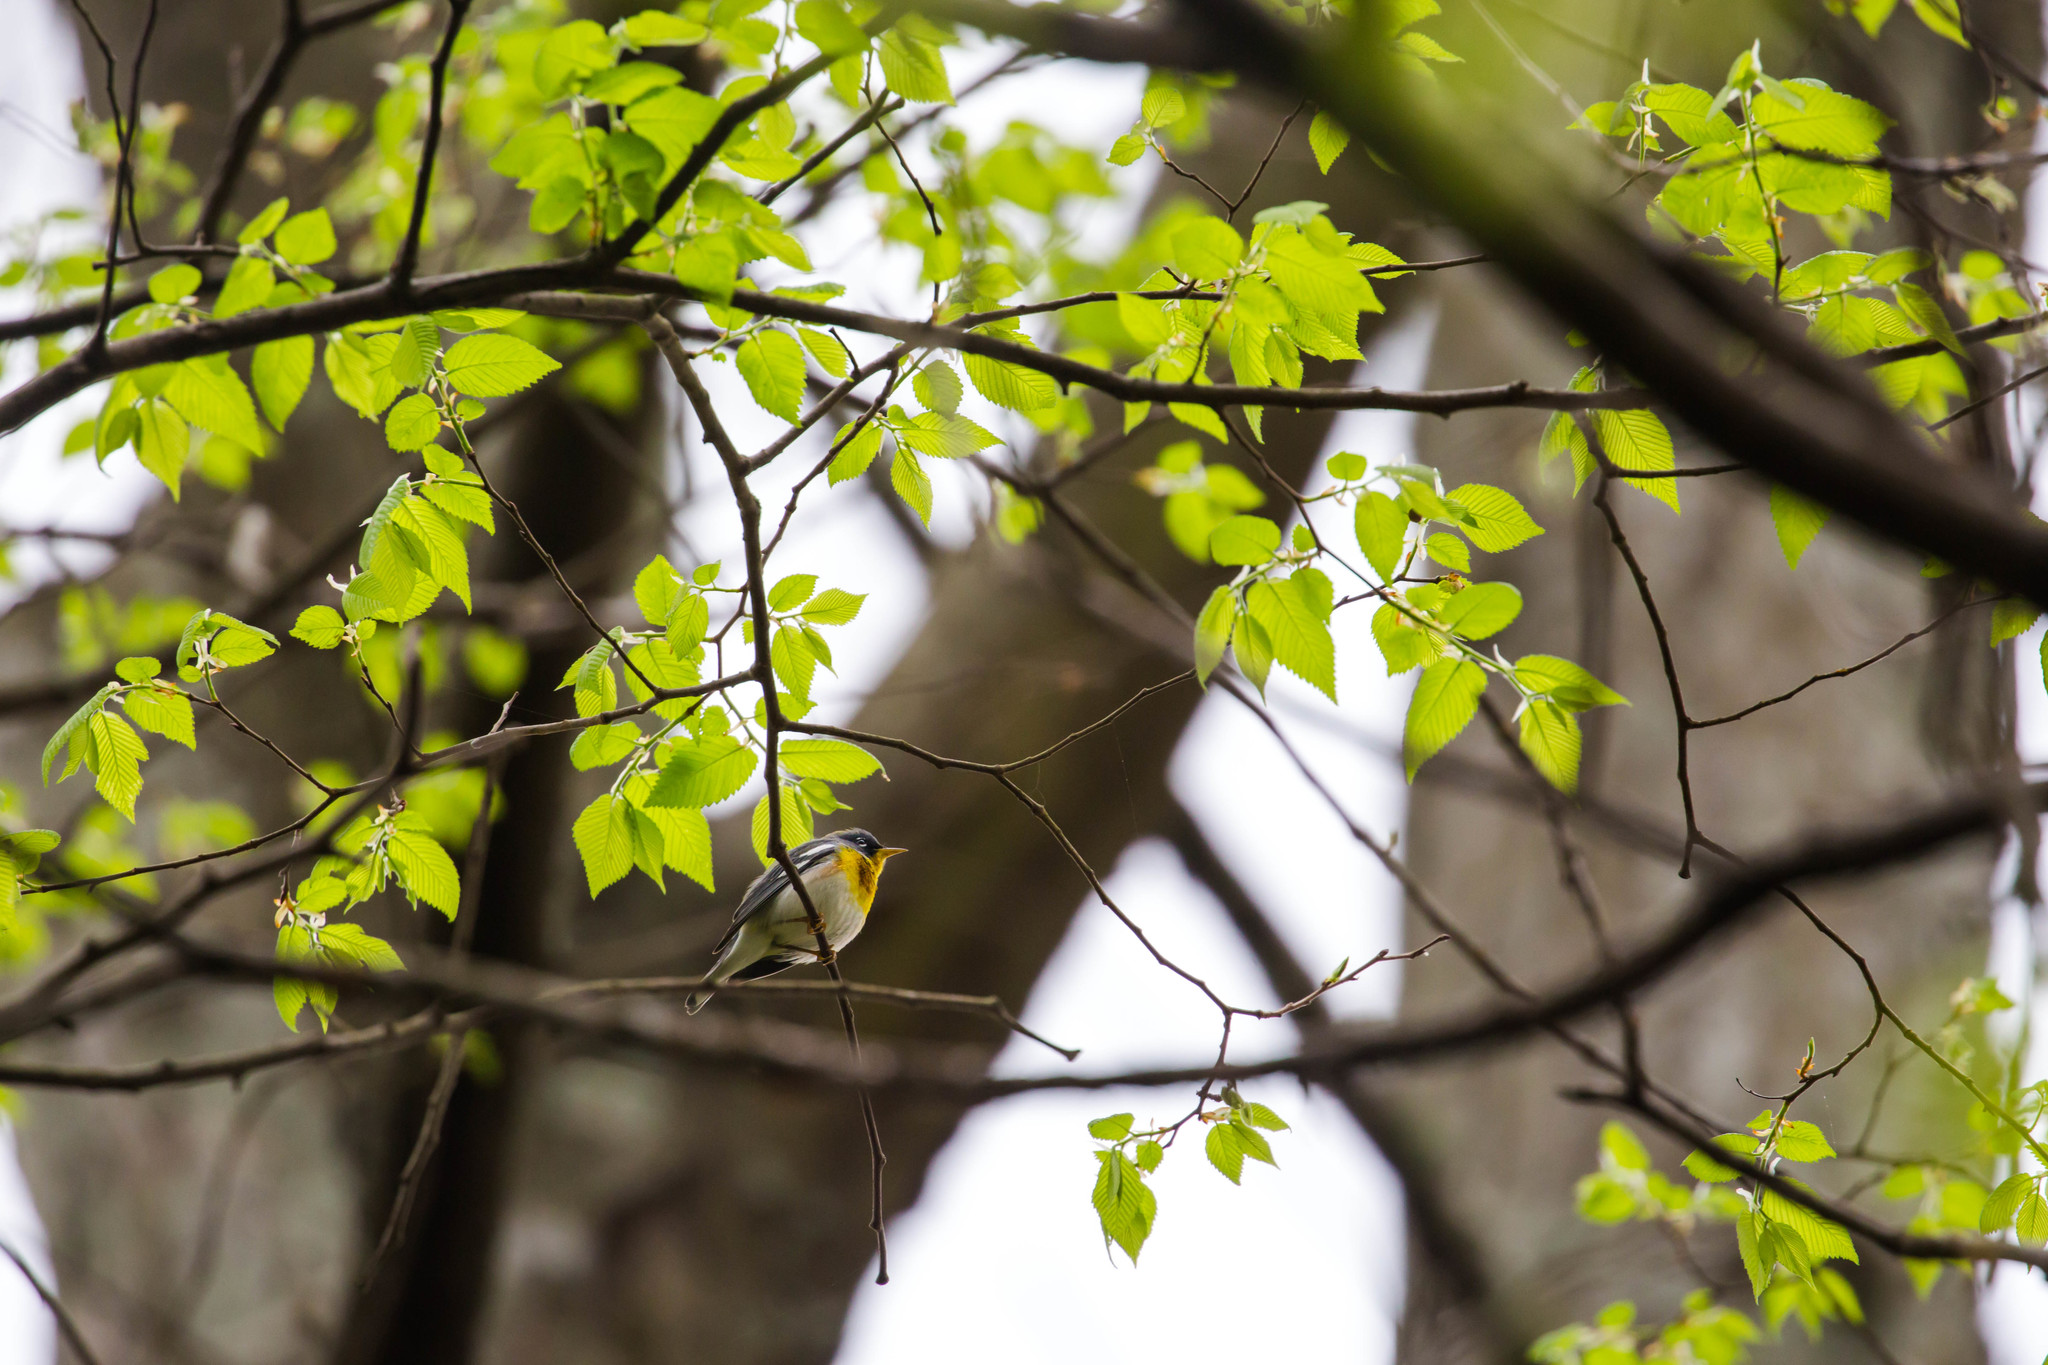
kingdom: Animalia
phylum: Chordata
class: Aves
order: Passeriformes
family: Parulidae
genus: Setophaga
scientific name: Setophaga americana
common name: Northern parula
